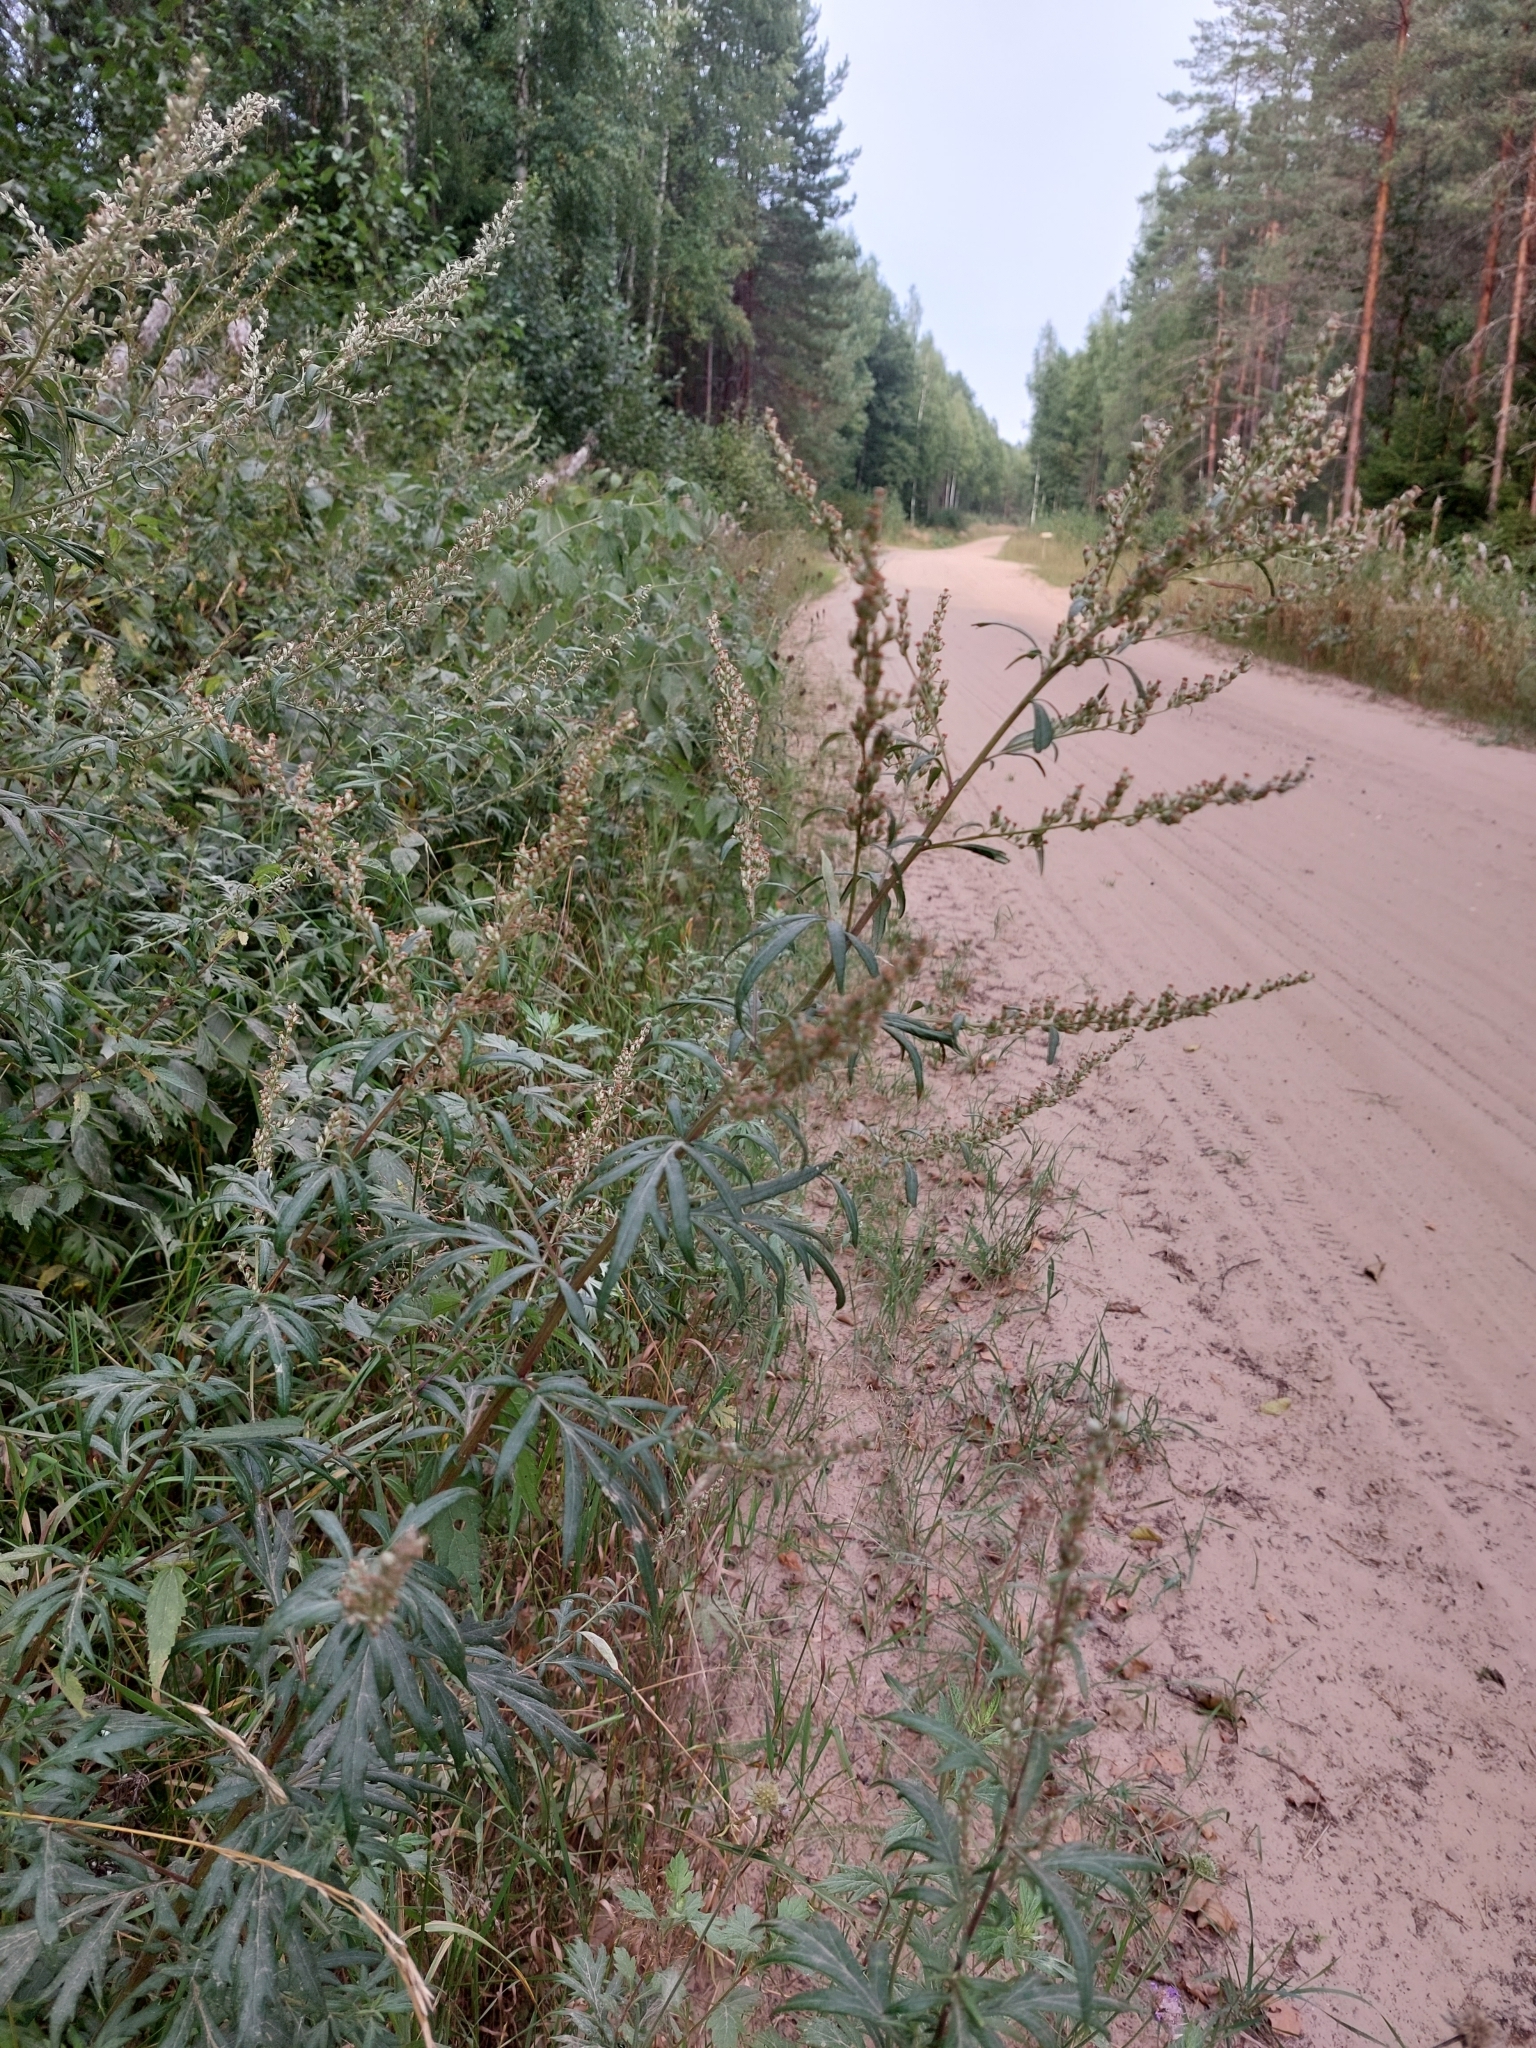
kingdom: Plantae
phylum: Tracheophyta
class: Magnoliopsida
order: Asterales
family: Asteraceae
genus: Artemisia
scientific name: Artemisia vulgaris
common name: Mugwort
